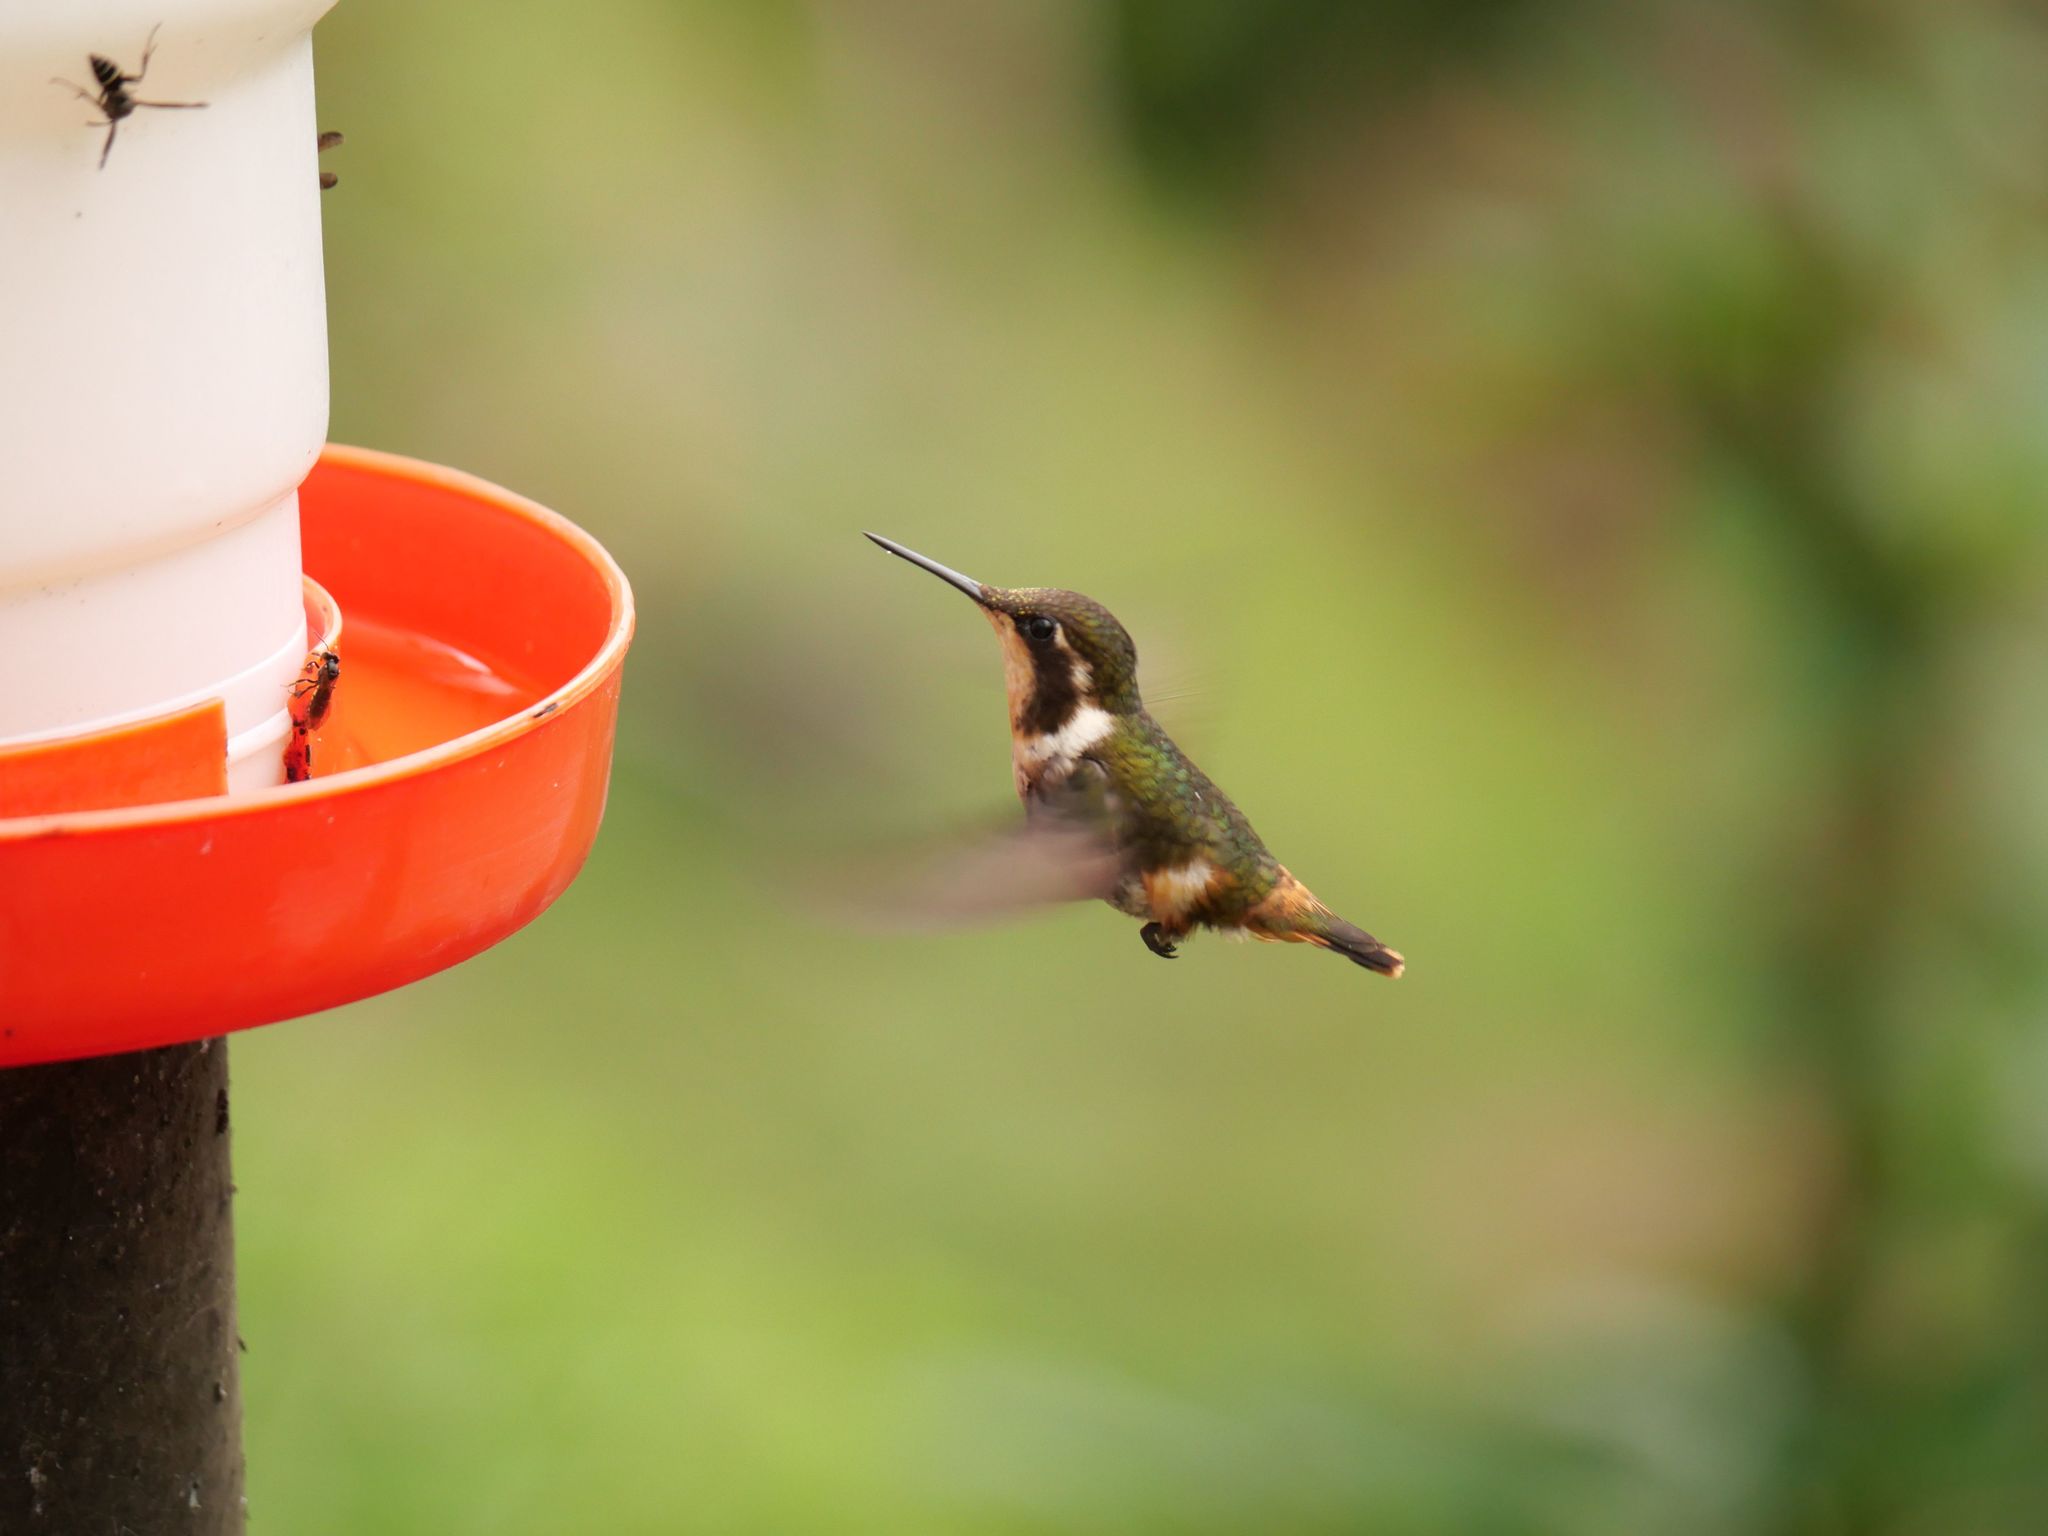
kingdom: Animalia
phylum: Chordata
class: Aves
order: Apodiformes
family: Trochilidae
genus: Chaetocercus
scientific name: Chaetocercus mulsant
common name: White-bellied woodstar
